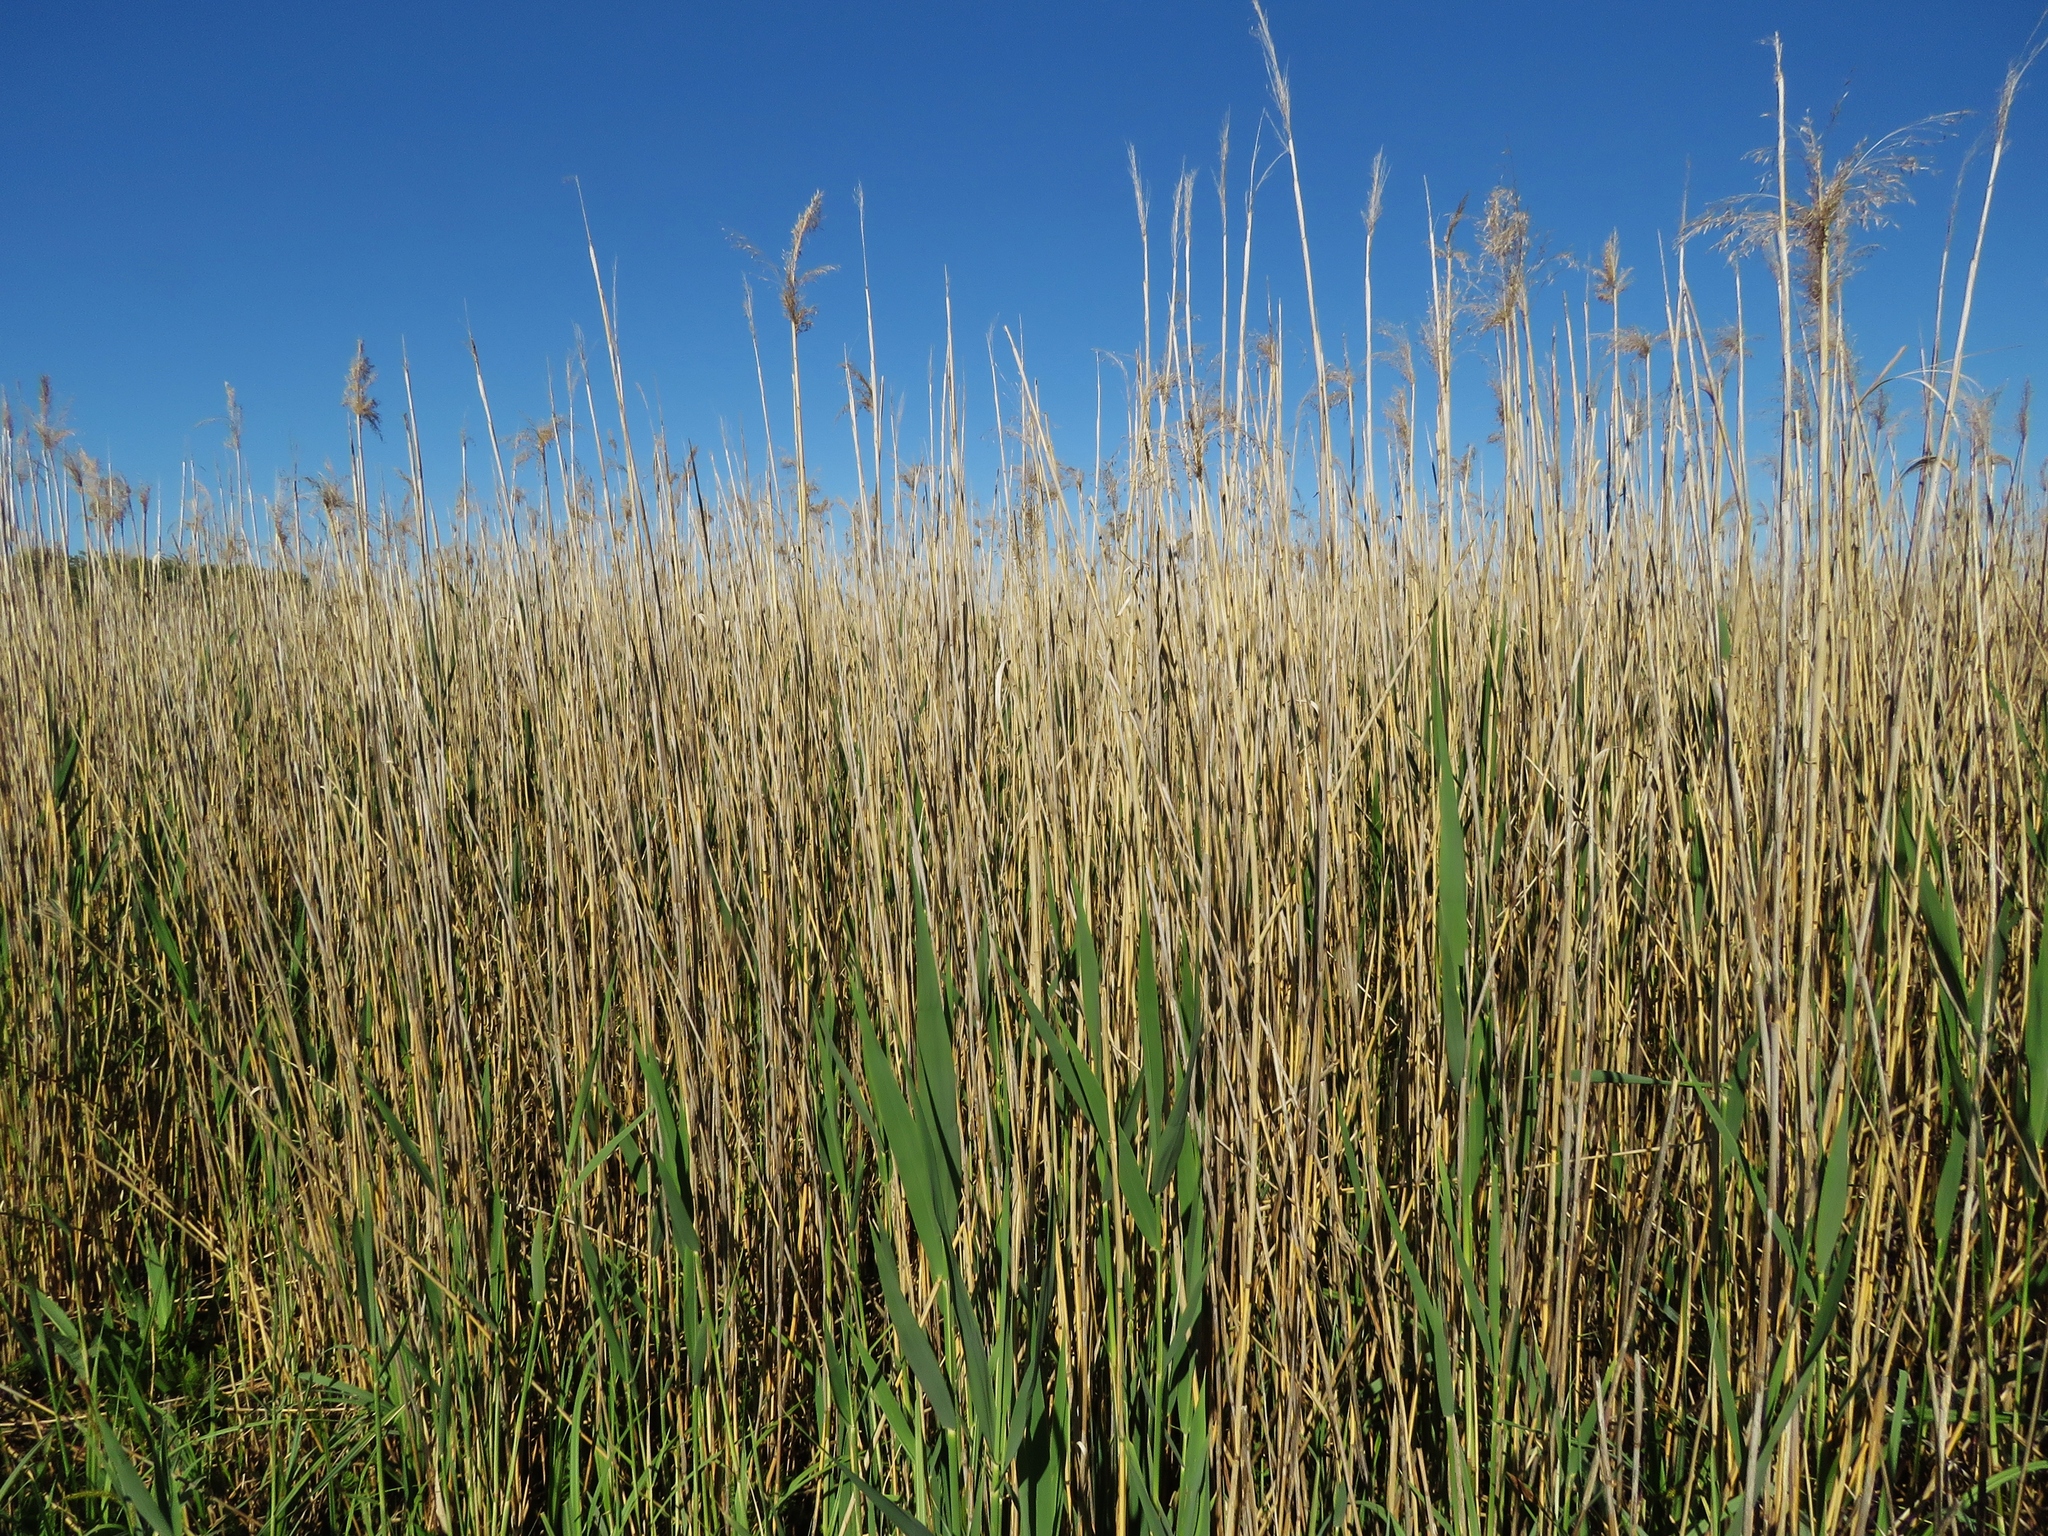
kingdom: Plantae
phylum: Tracheophyta
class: Liliopsida
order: Poales
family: Poaceae
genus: Phragmites
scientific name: Phragmites australis
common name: Common reed
